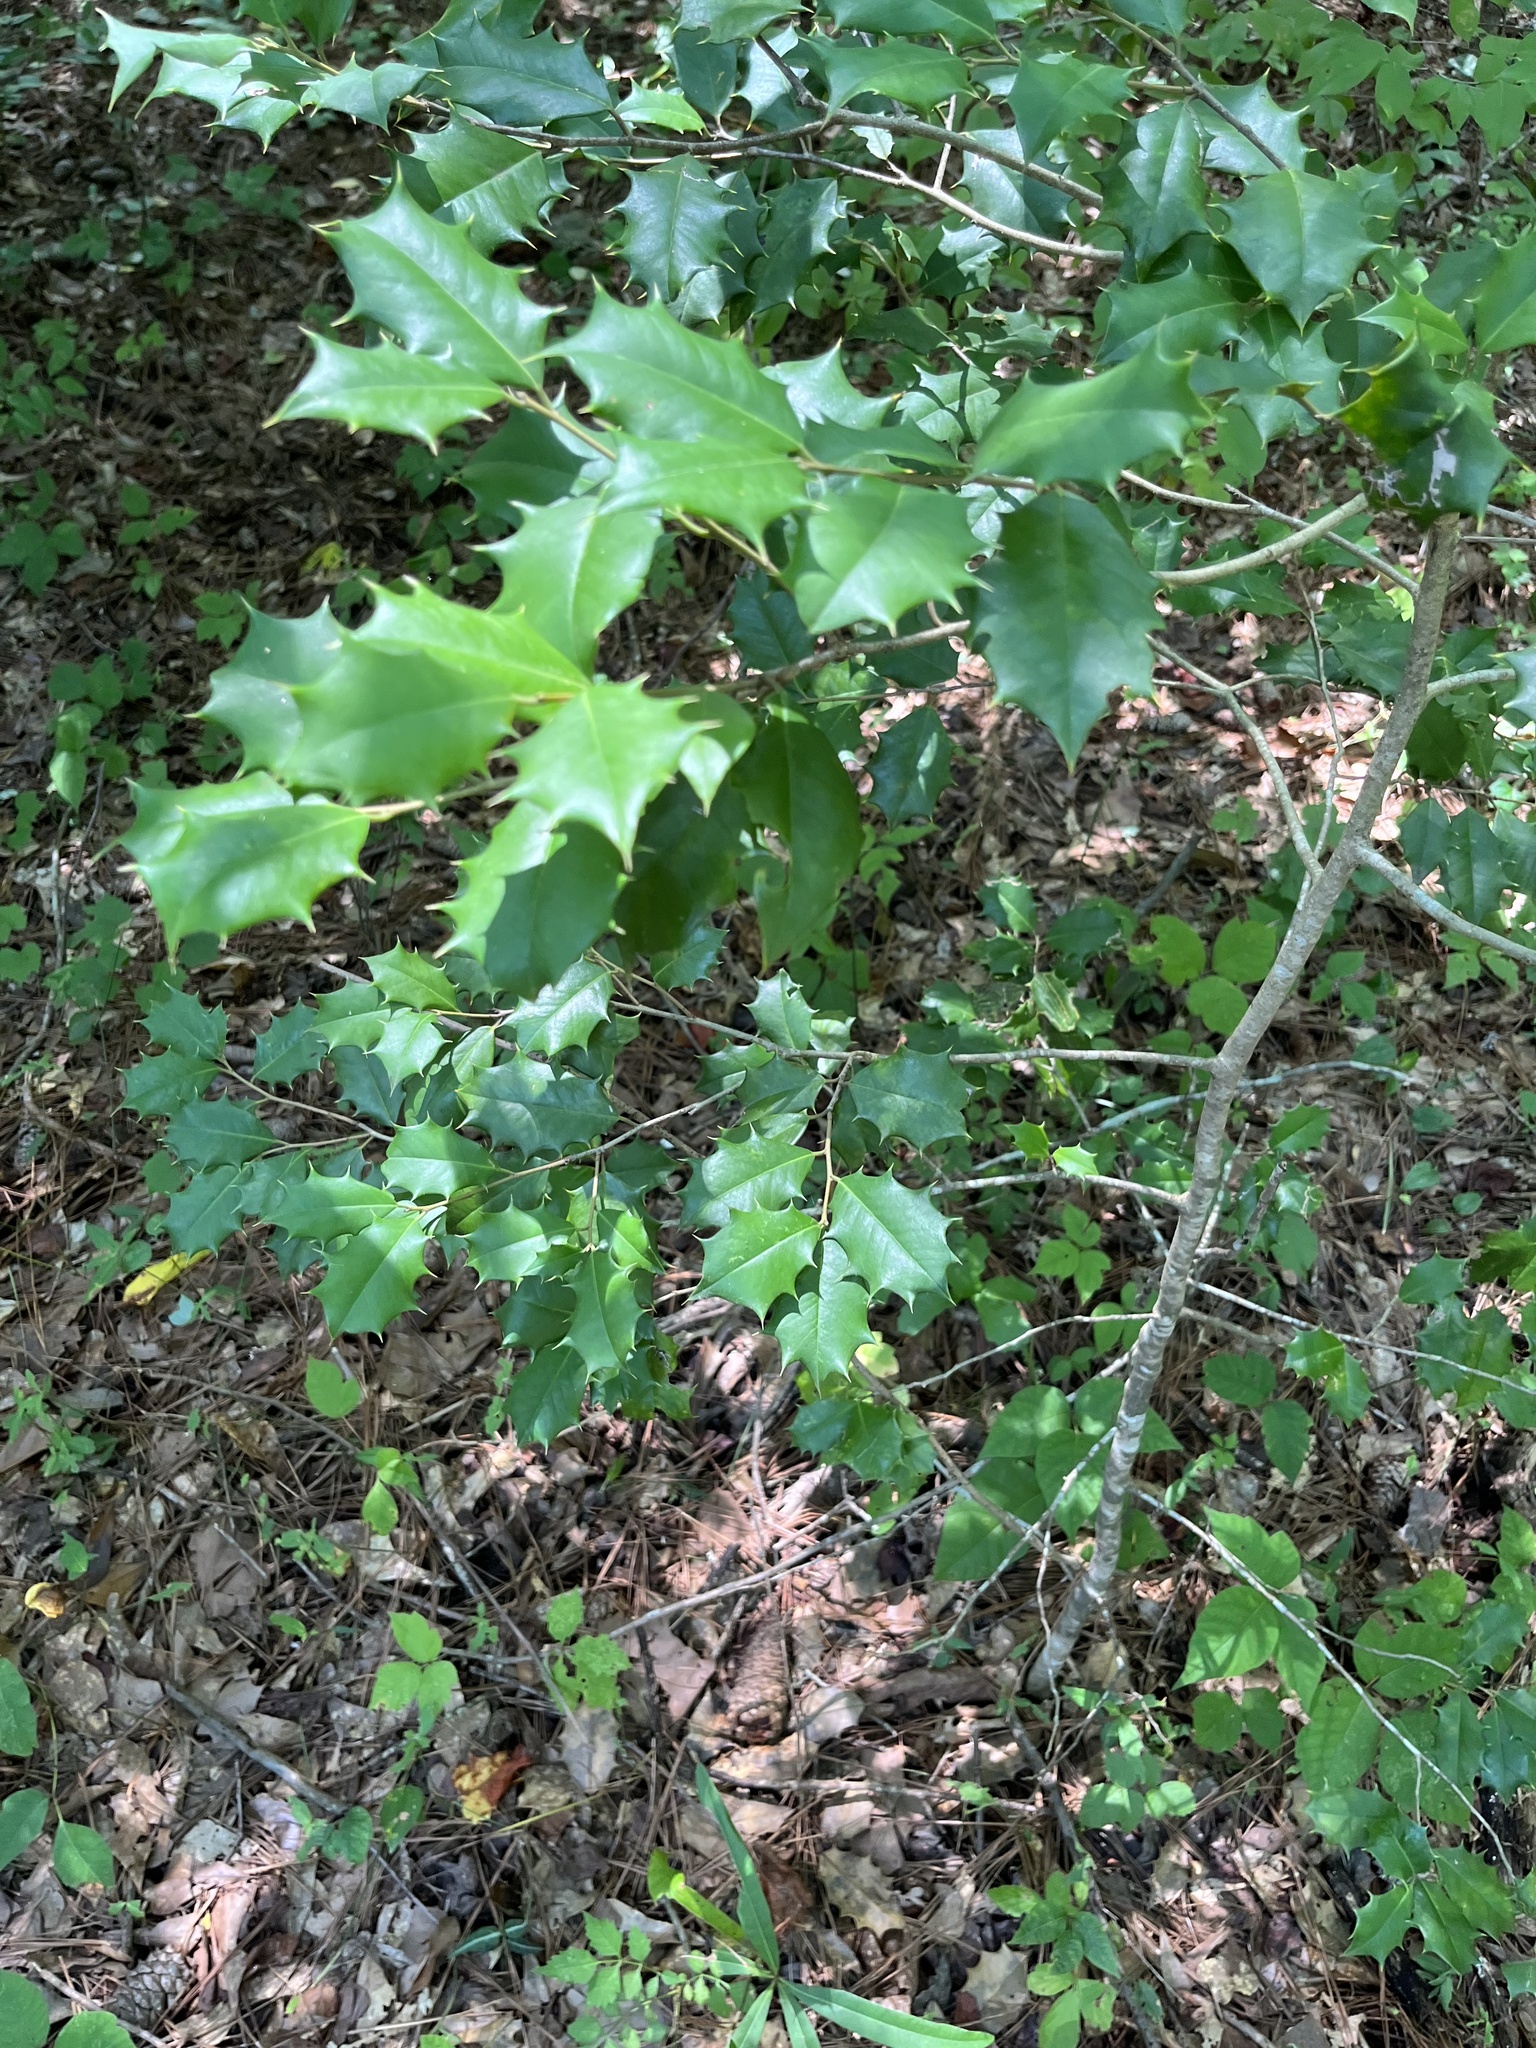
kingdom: Plantae
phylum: Tracheophyta
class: Magnoliopsida
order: Aquifoliales
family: Aquifoliaceae
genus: Ilex
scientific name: Ilex opaca
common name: American holly
